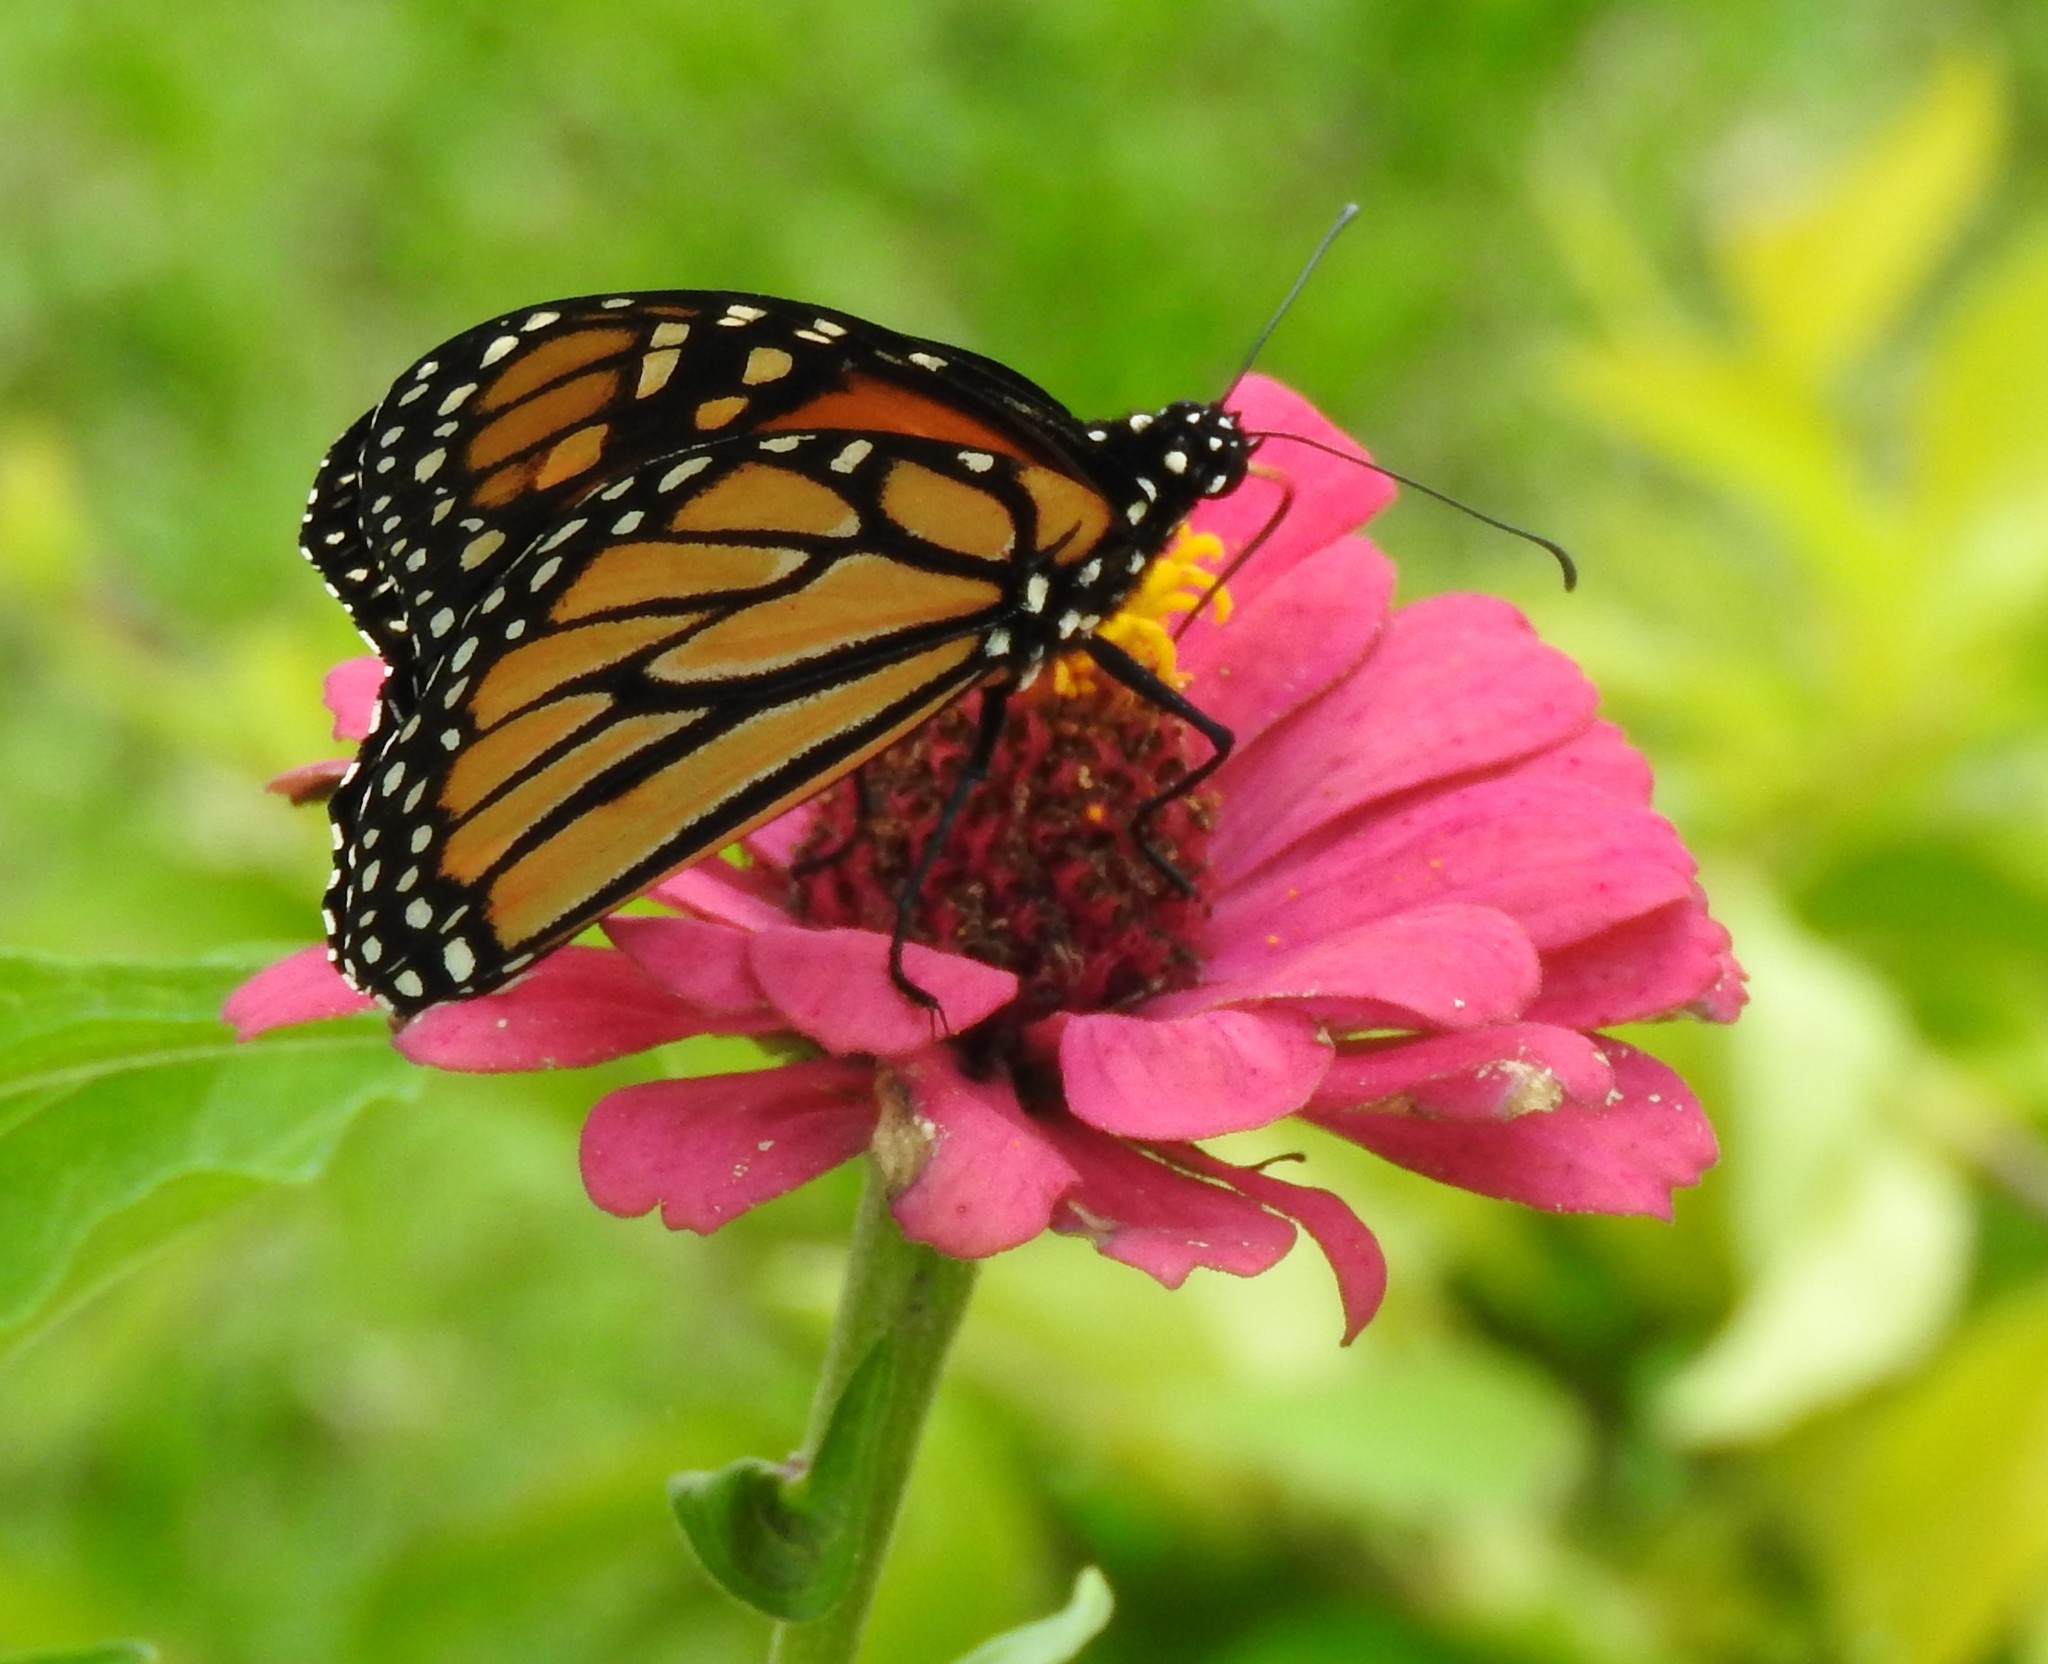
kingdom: Animalia
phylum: Arthropoda
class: Insecta
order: Lepidoptera
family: Nymphalidae
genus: Danaus
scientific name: Danaus plexippus
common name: Monarch
